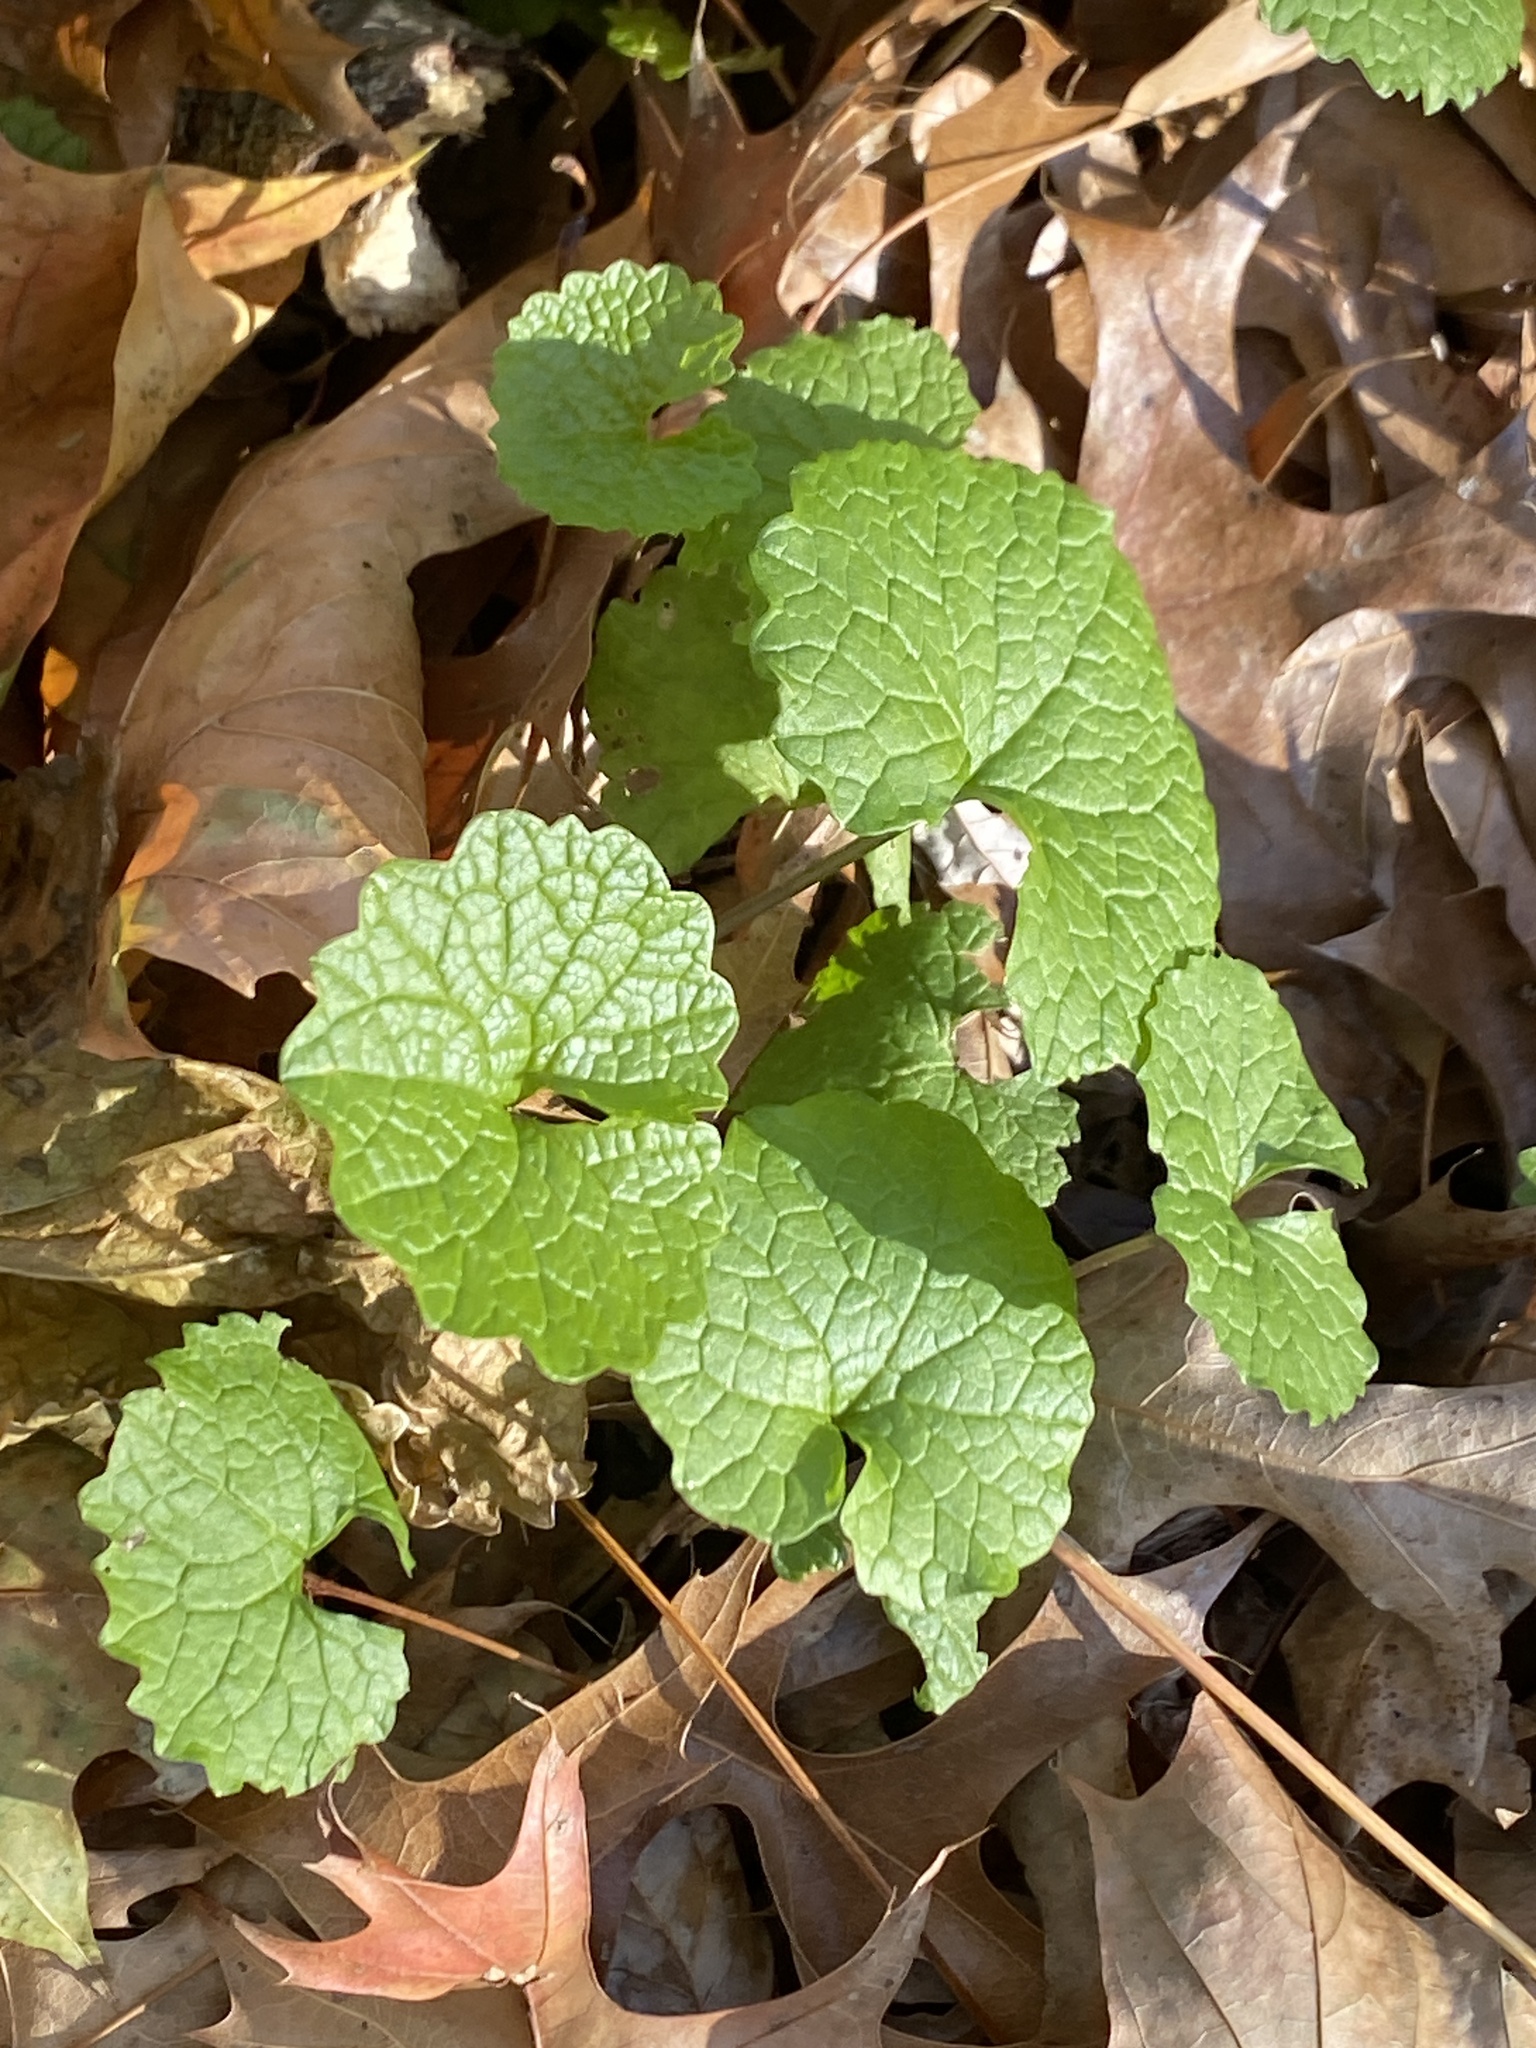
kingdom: Plantae
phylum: Tracheophyta
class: Magnoliopsida
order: Brassicales
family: Brassicaceae
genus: Alliaria
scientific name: Alliaria petiolata
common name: Garlic mustard
